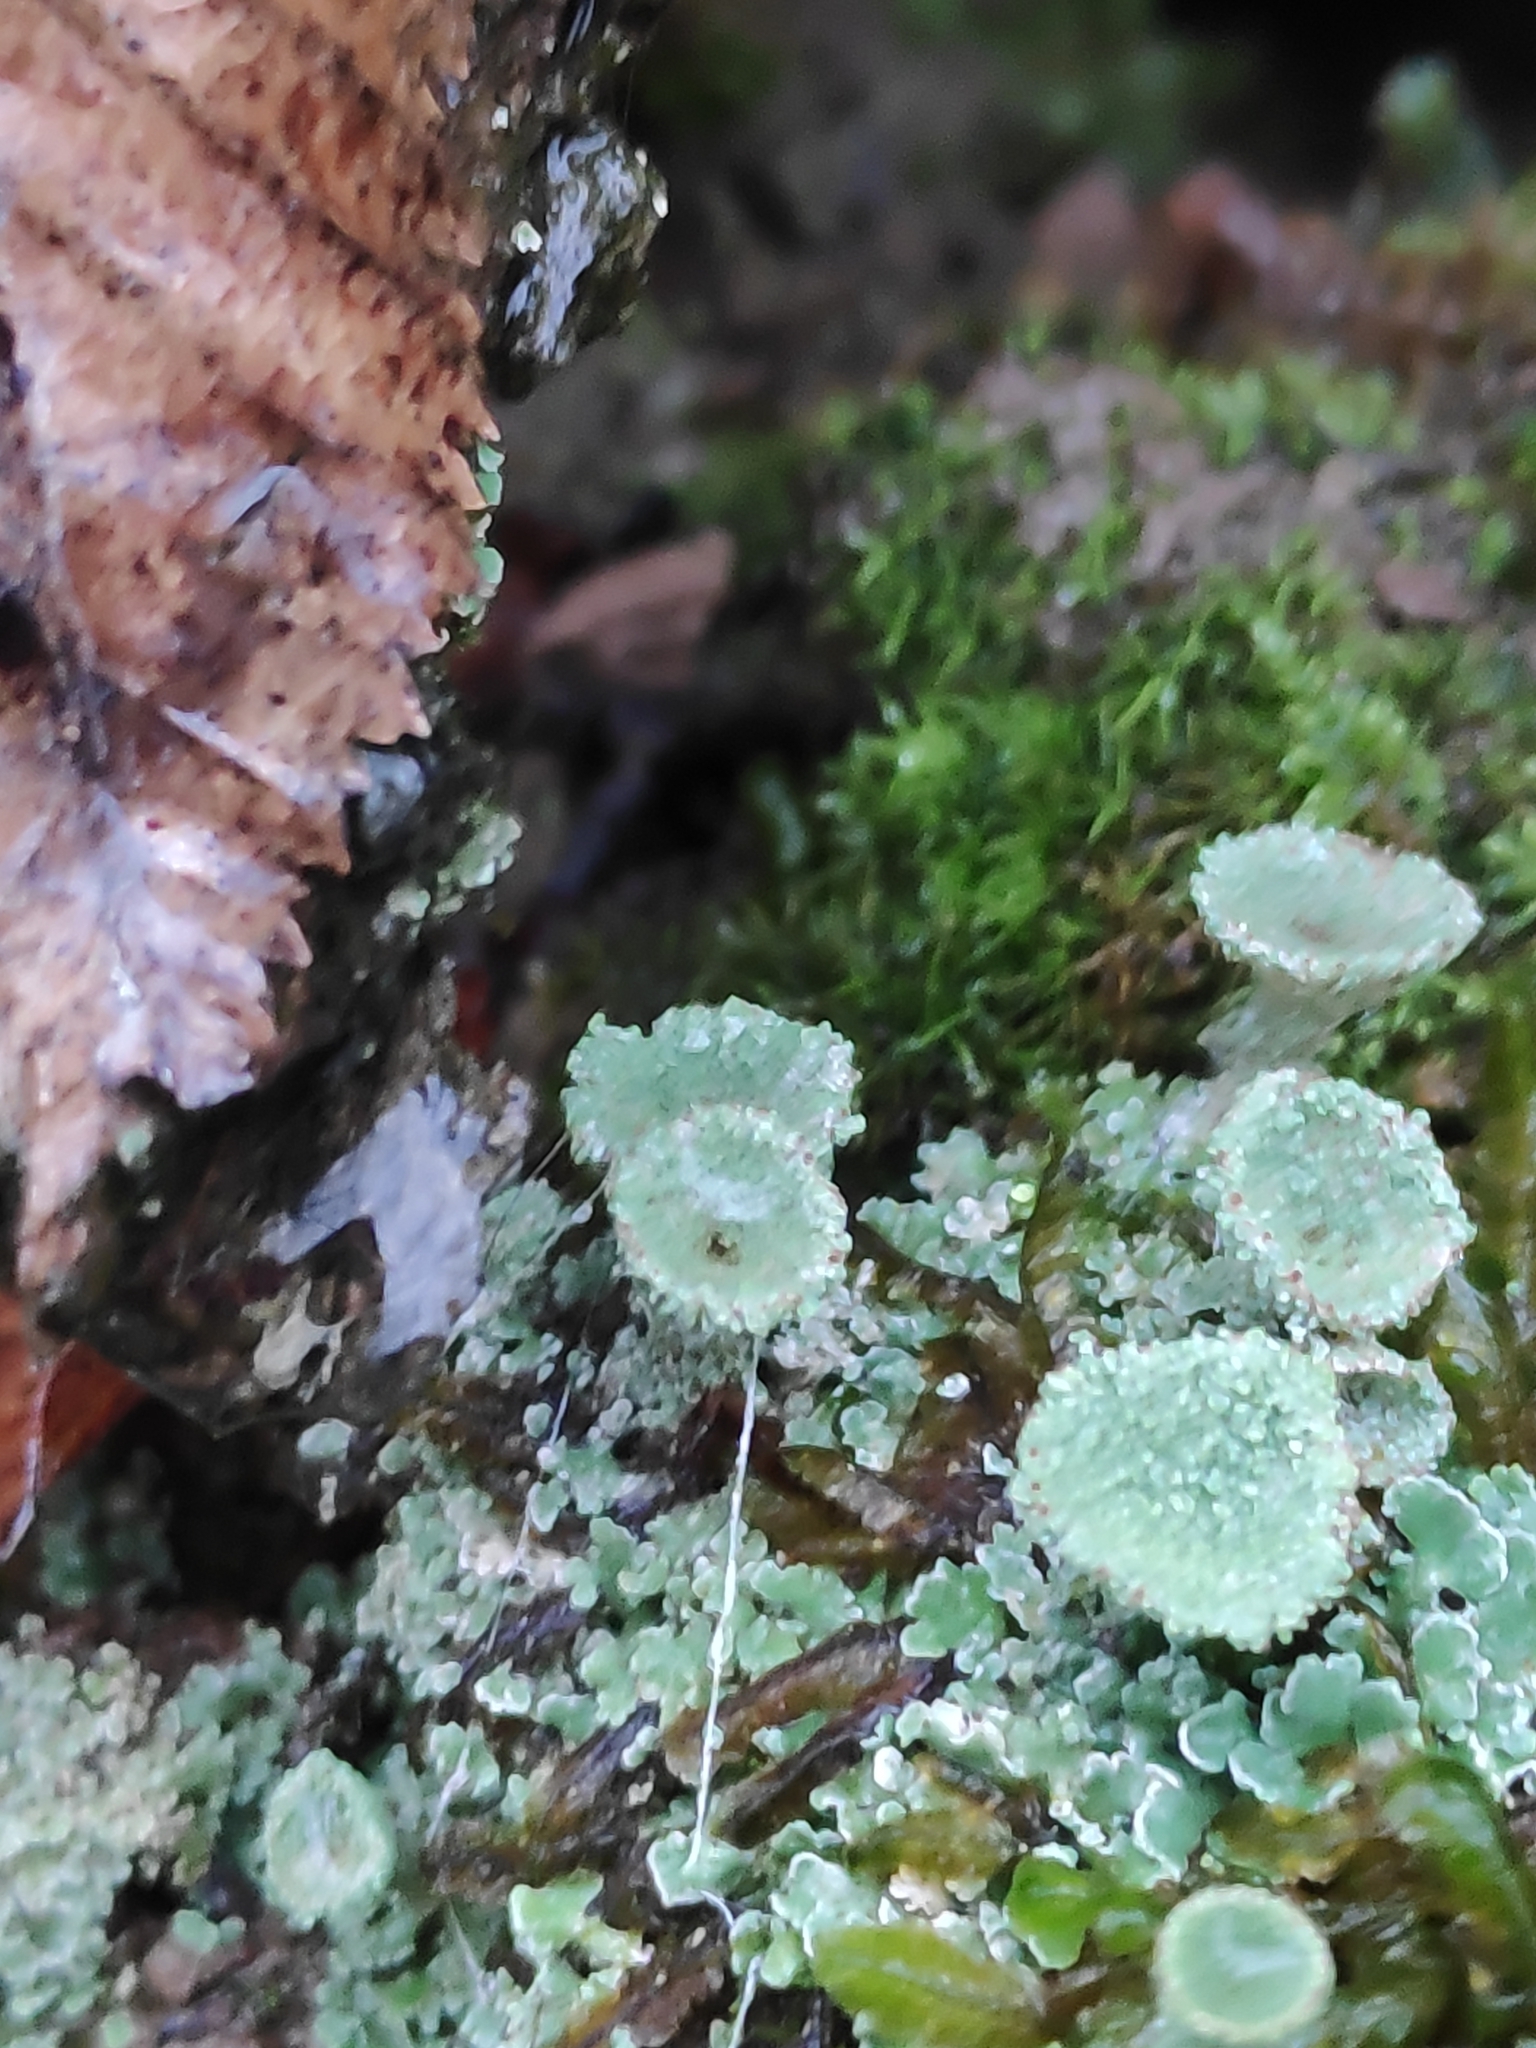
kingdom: Fungi
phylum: Ascomycota
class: Lecanoromycetes
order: Lecanorales
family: Cladoniaceae
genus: Cladonia
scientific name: Cladonia pyxidata
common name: Pebbled pixie cup
